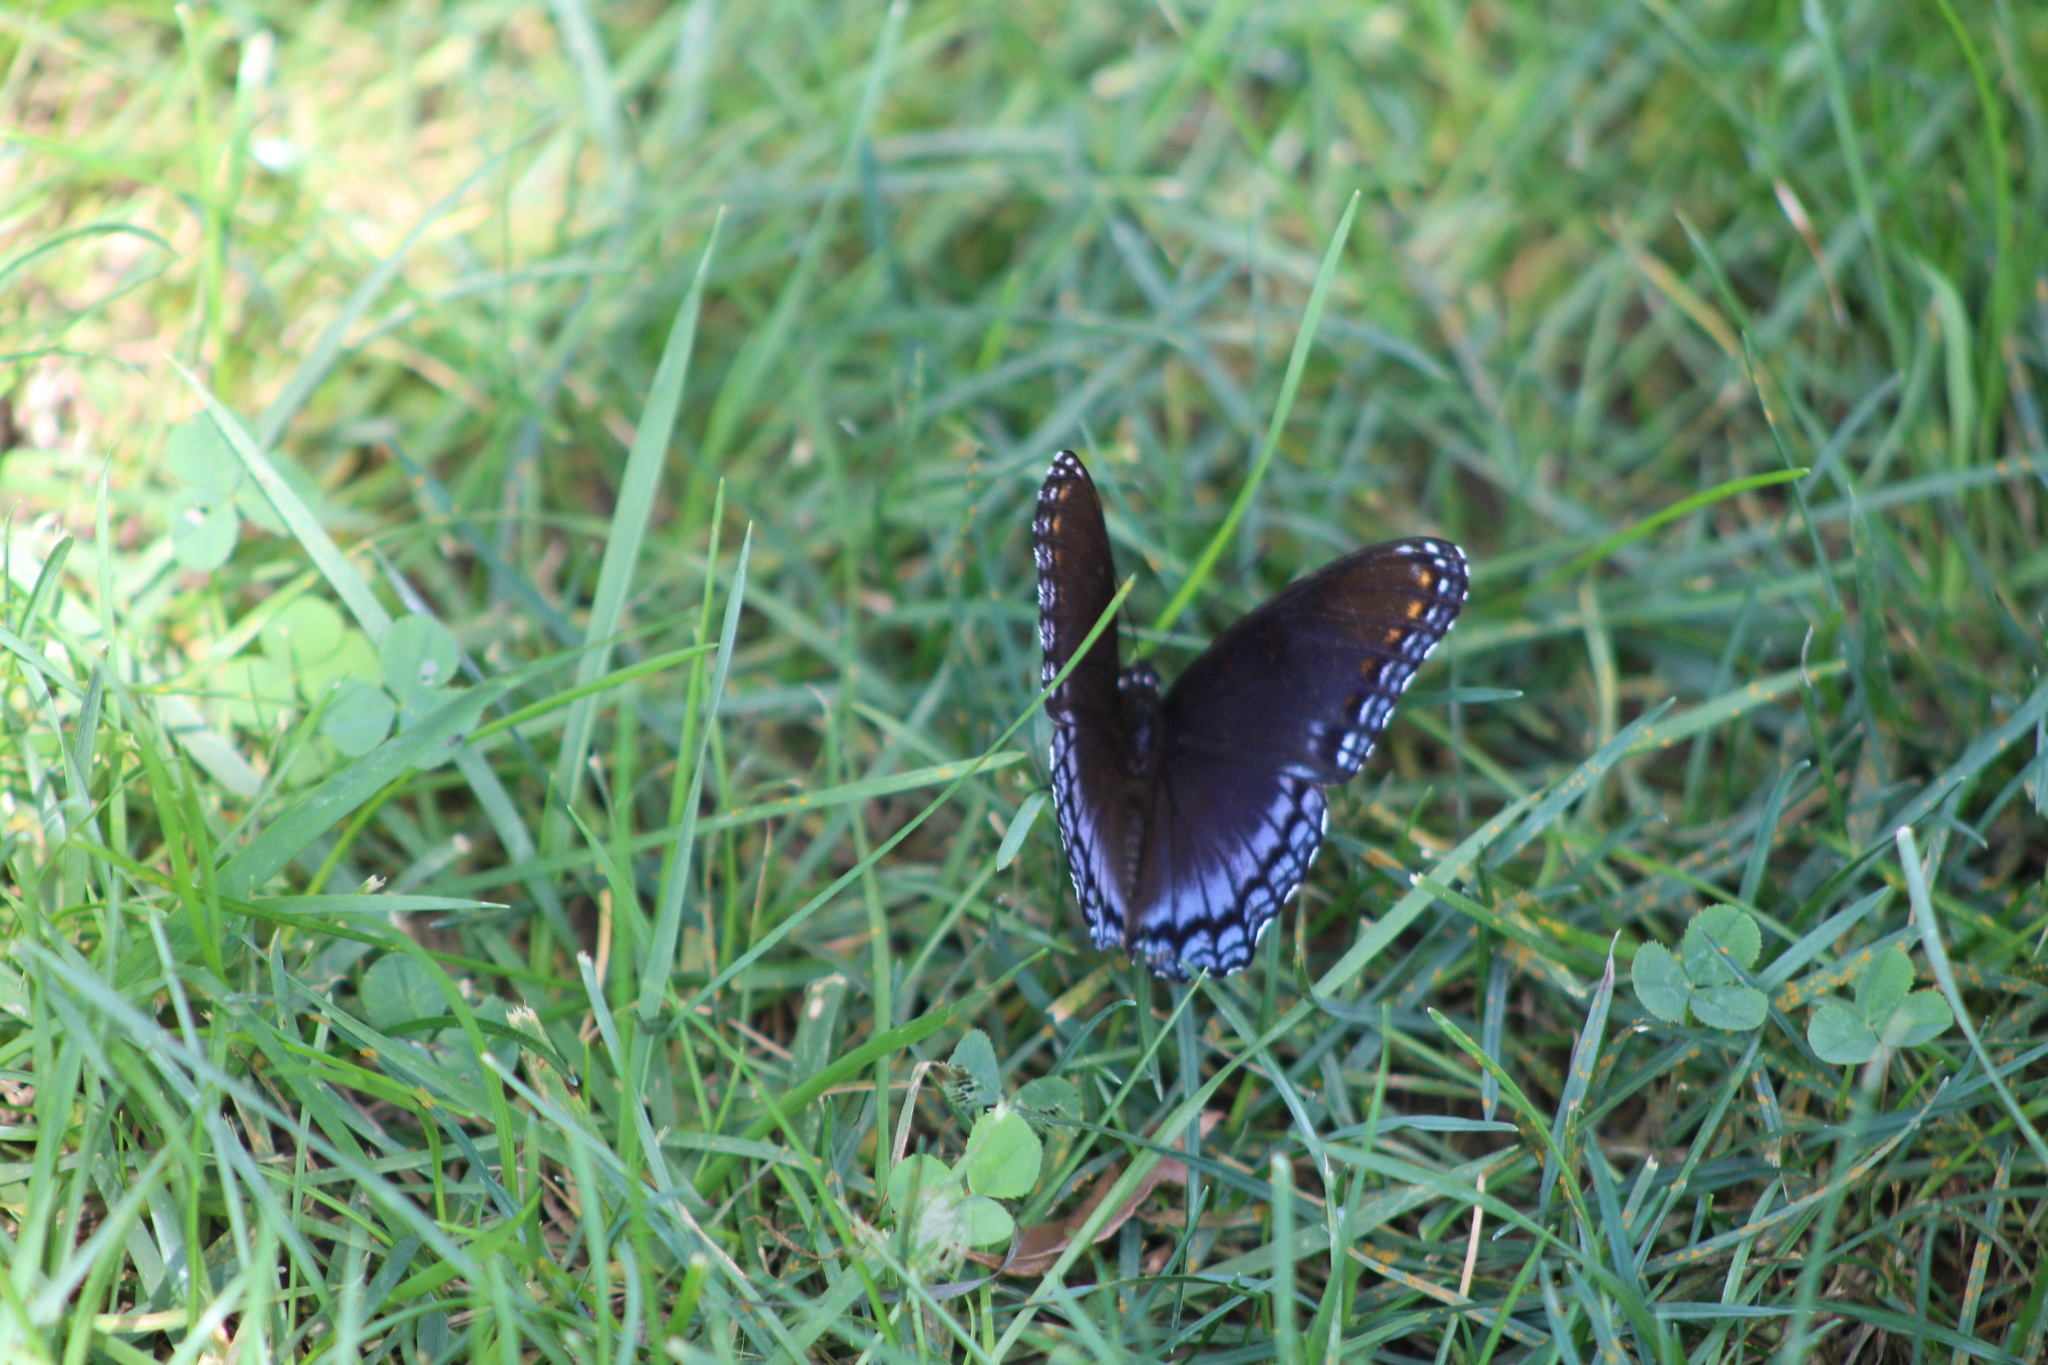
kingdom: Animalia
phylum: Arthropoda
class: Insecta
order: Lepidoptera
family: Nymphalidae
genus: Limenitis
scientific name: Limenitis astyanax
